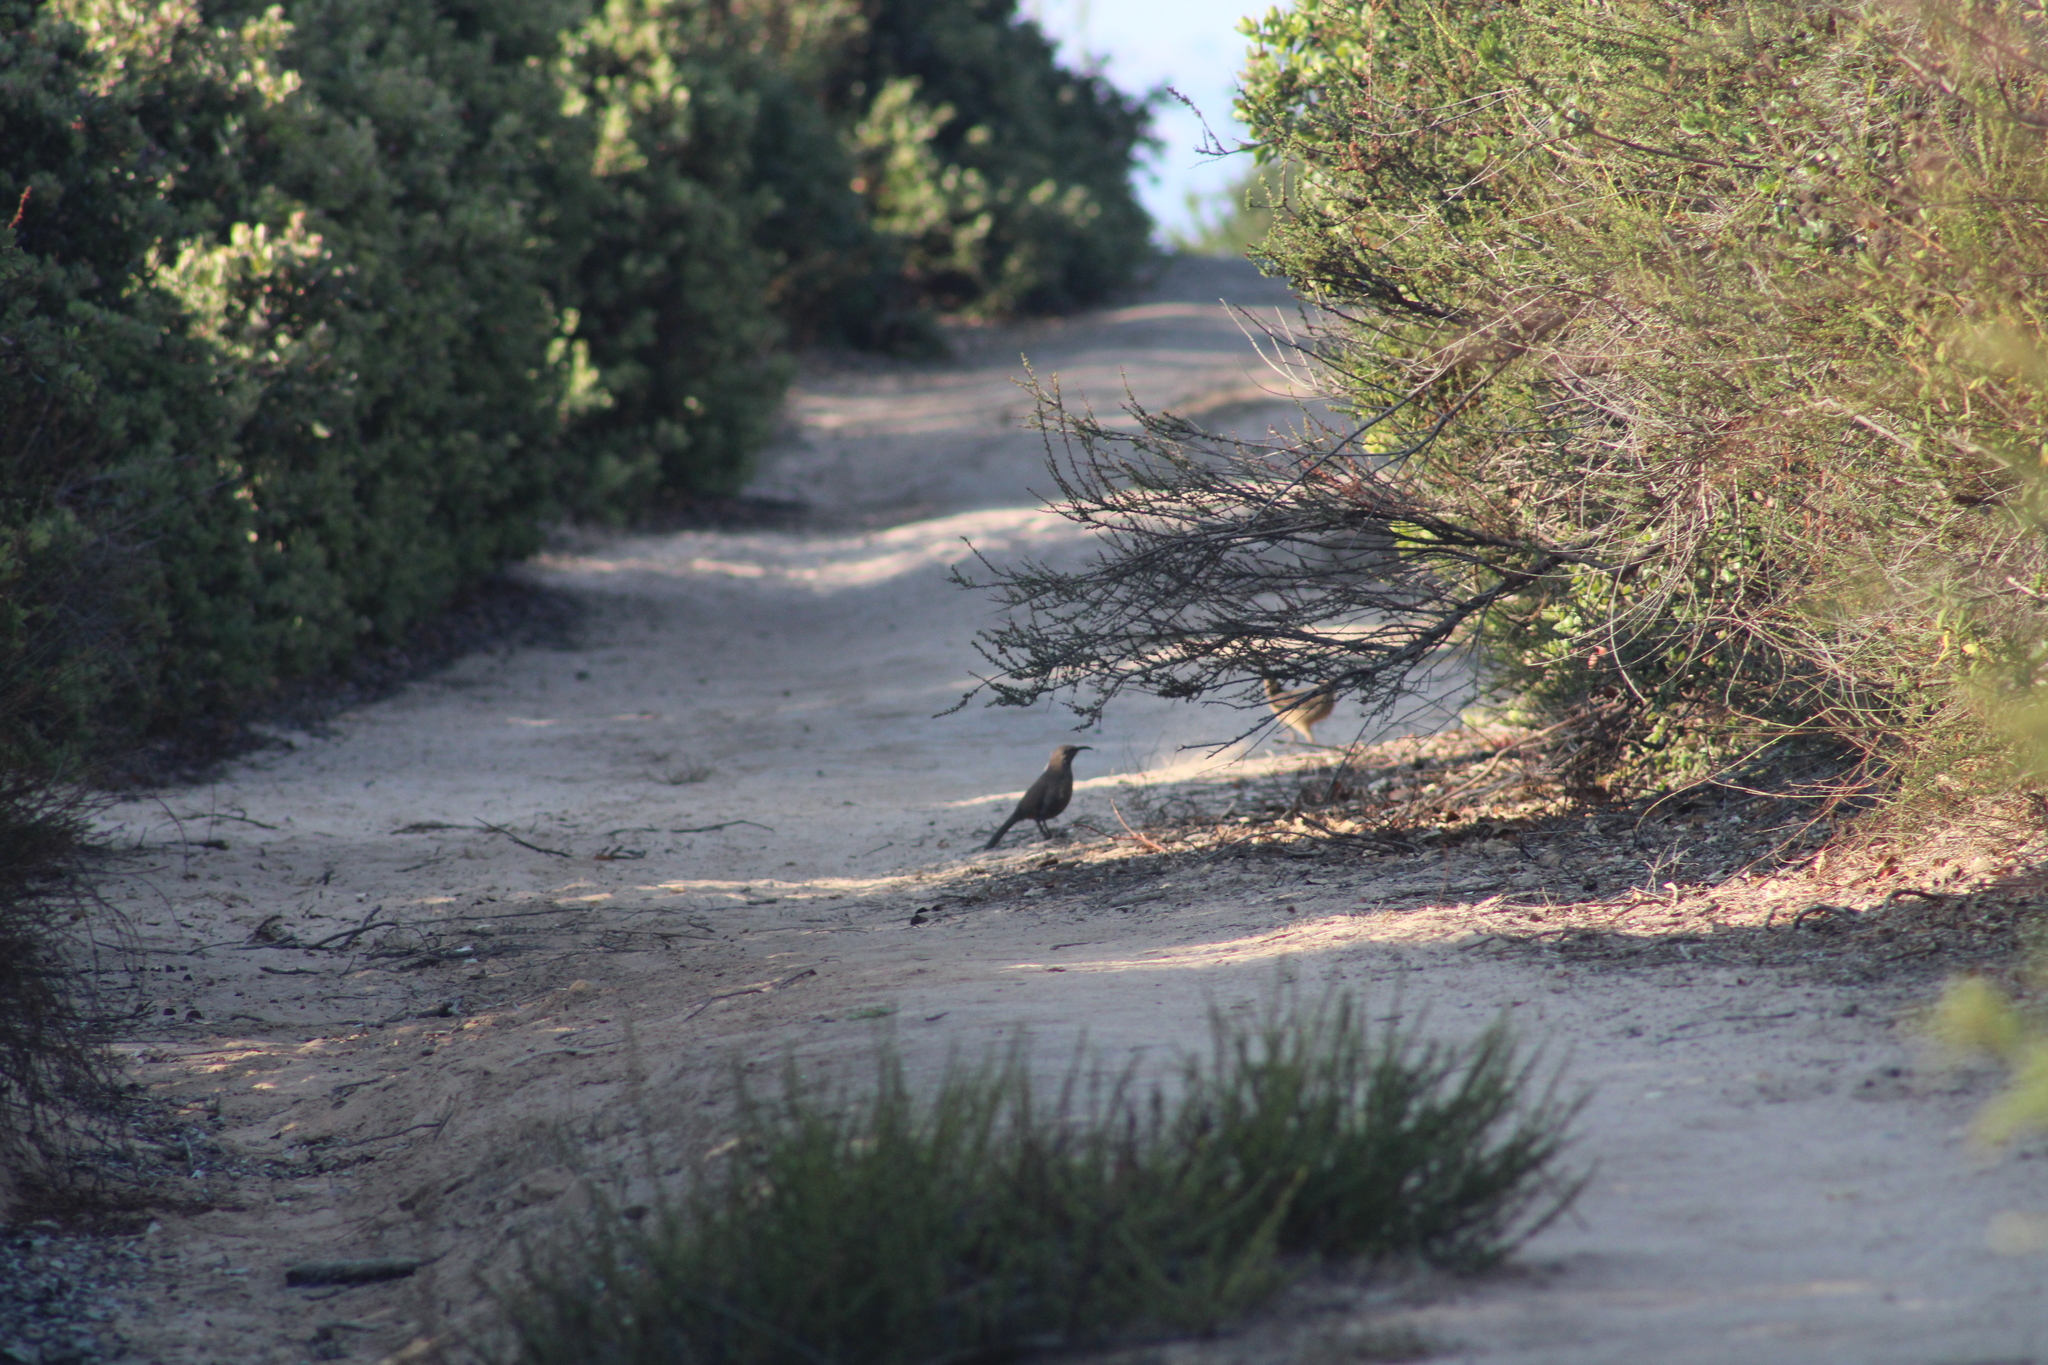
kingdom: Animalia
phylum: Chordata
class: Aves
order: Passeriformes
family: Mimidae
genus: Toxostoma
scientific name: Toxostoma redivivum
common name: California thrasher
